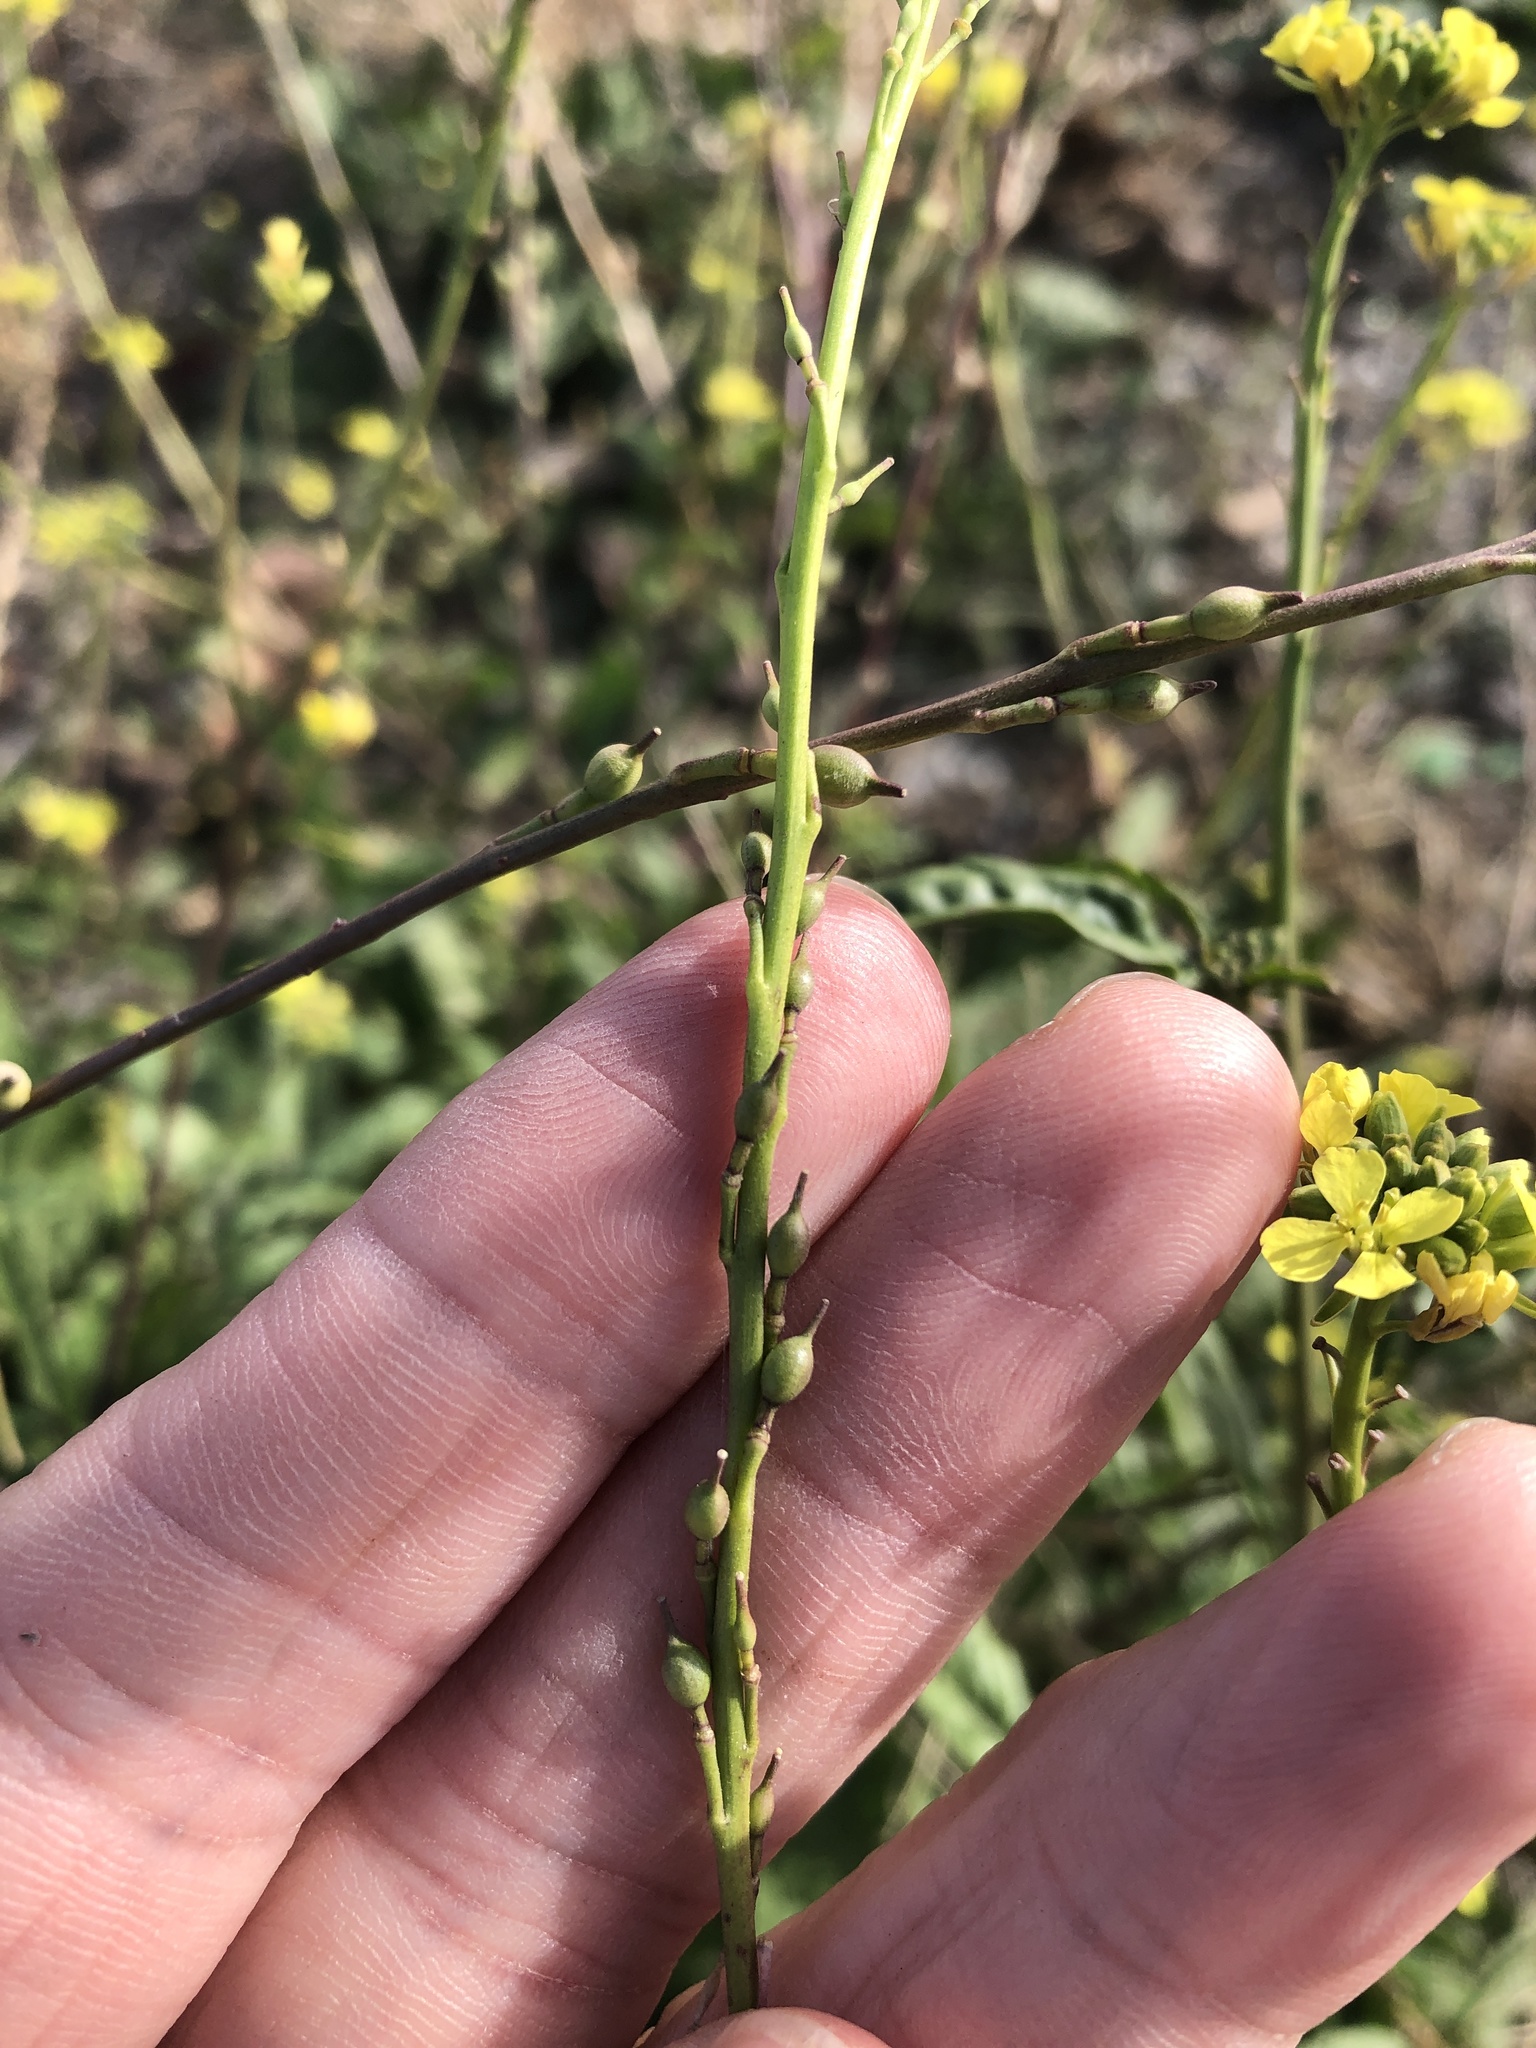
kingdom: Plantae
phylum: Tracheophyta
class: Magnoliopsida
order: Brassicales
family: Brassicaceae
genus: Rapistrum
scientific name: Rapistrum rugosum
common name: Annual bastardcabbage
